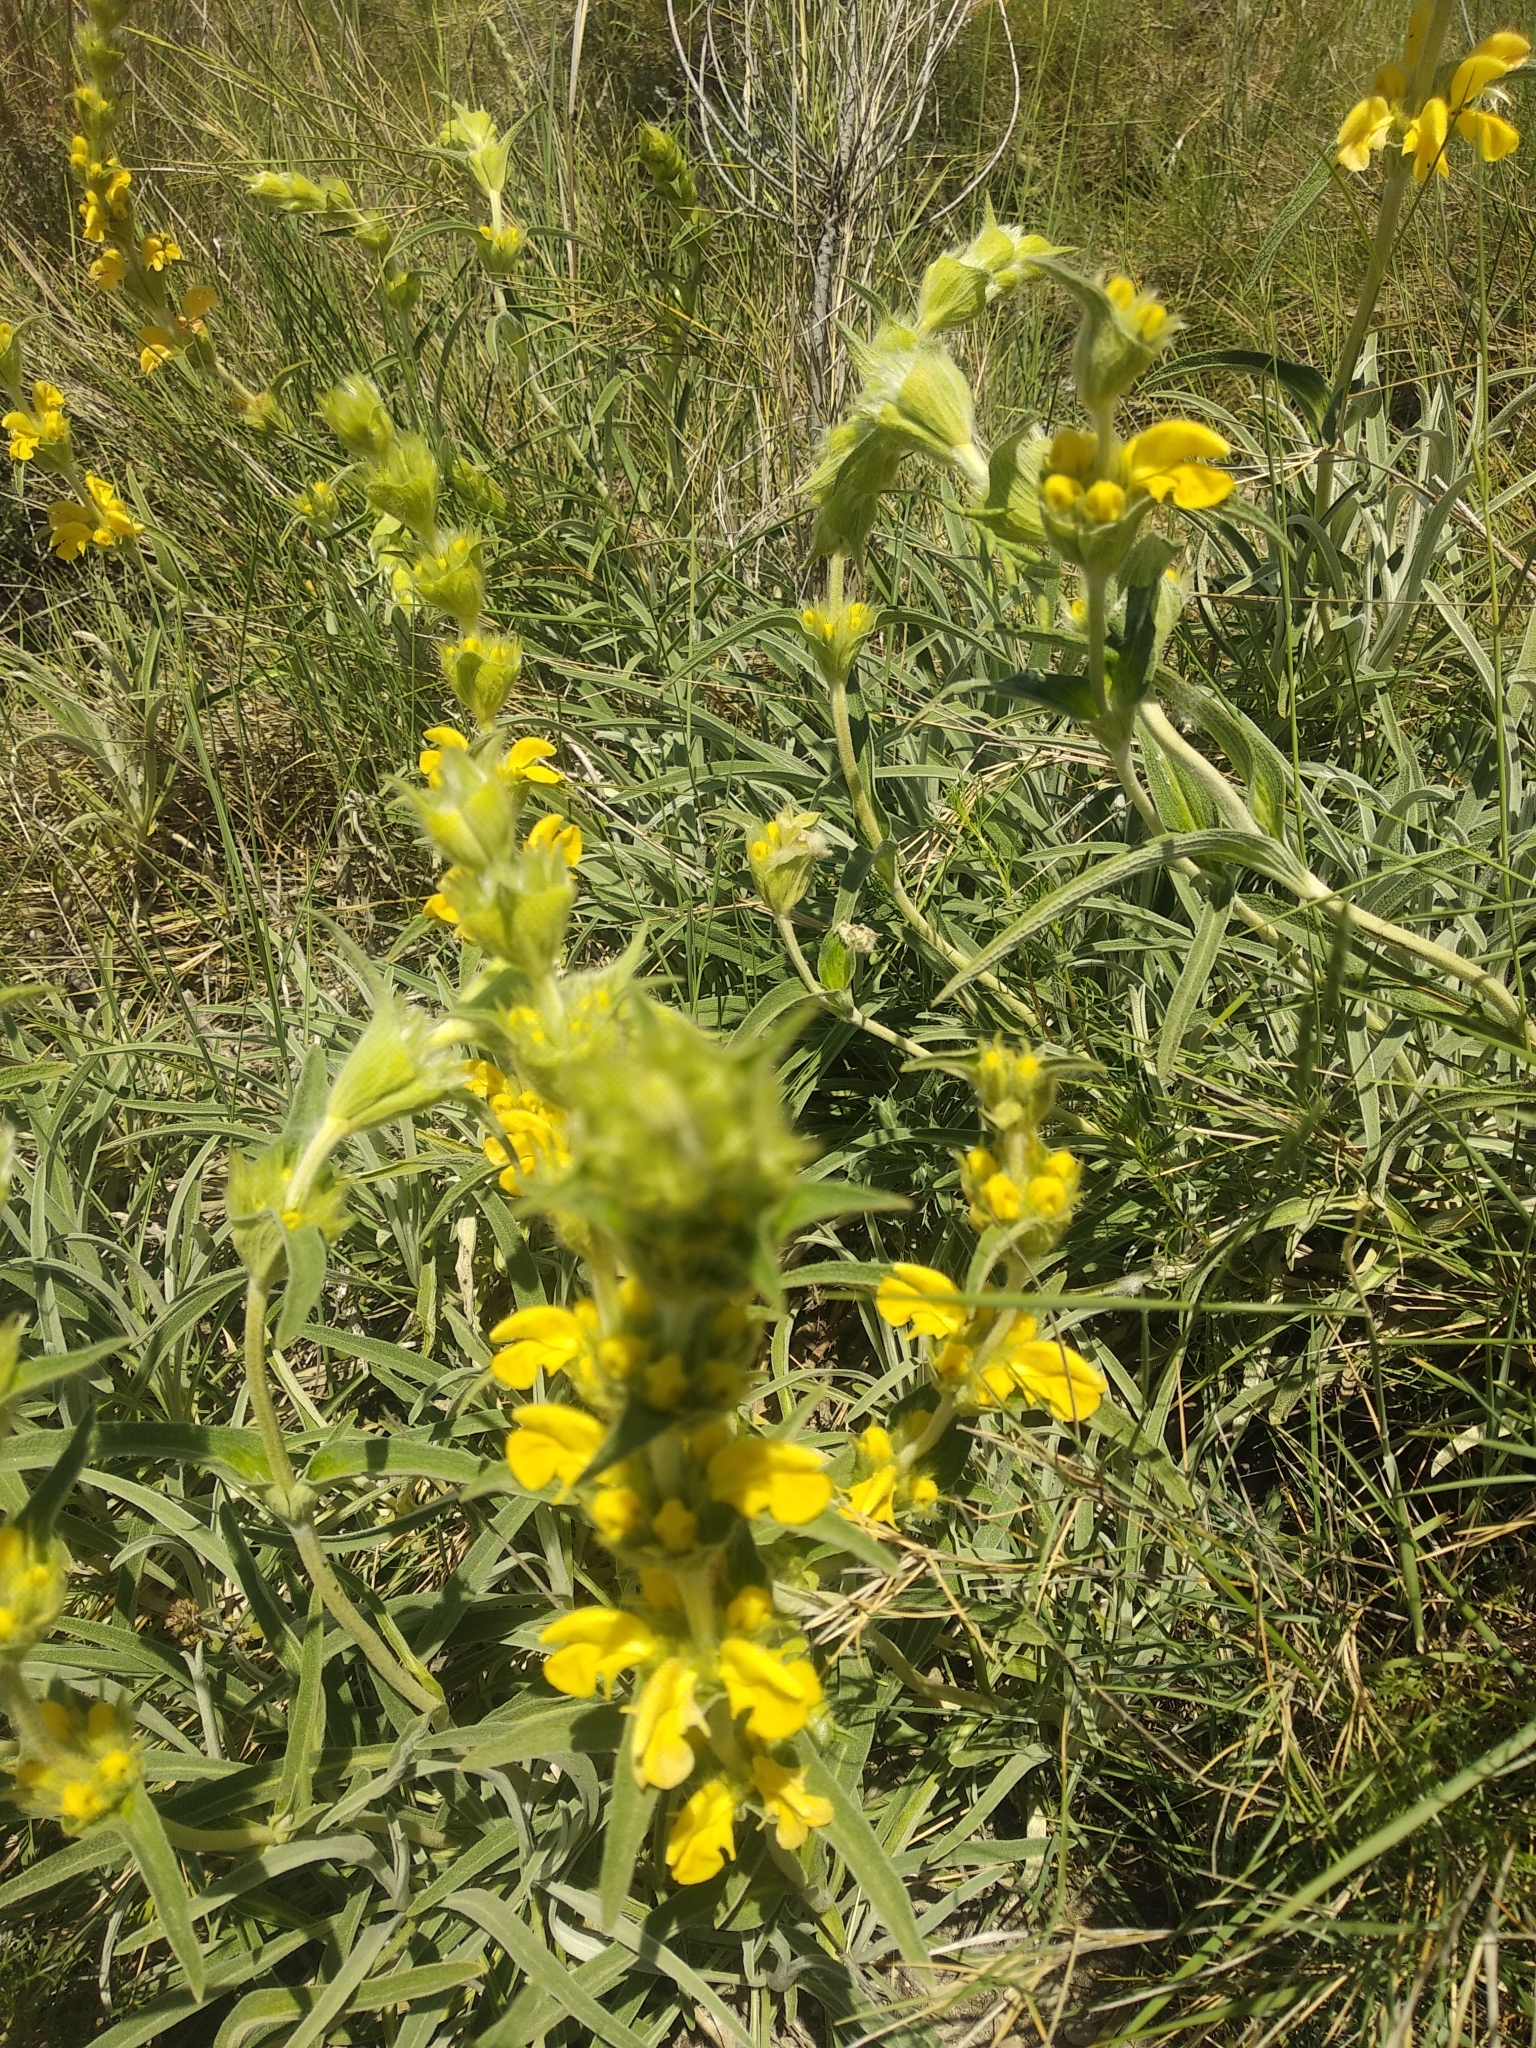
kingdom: Plantae
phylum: Tracheophyta
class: Magnoliopsida
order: Lamiales
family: Lamiaceae
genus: Phlomis
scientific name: Phlomis lychnitis
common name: Lampwickplant
